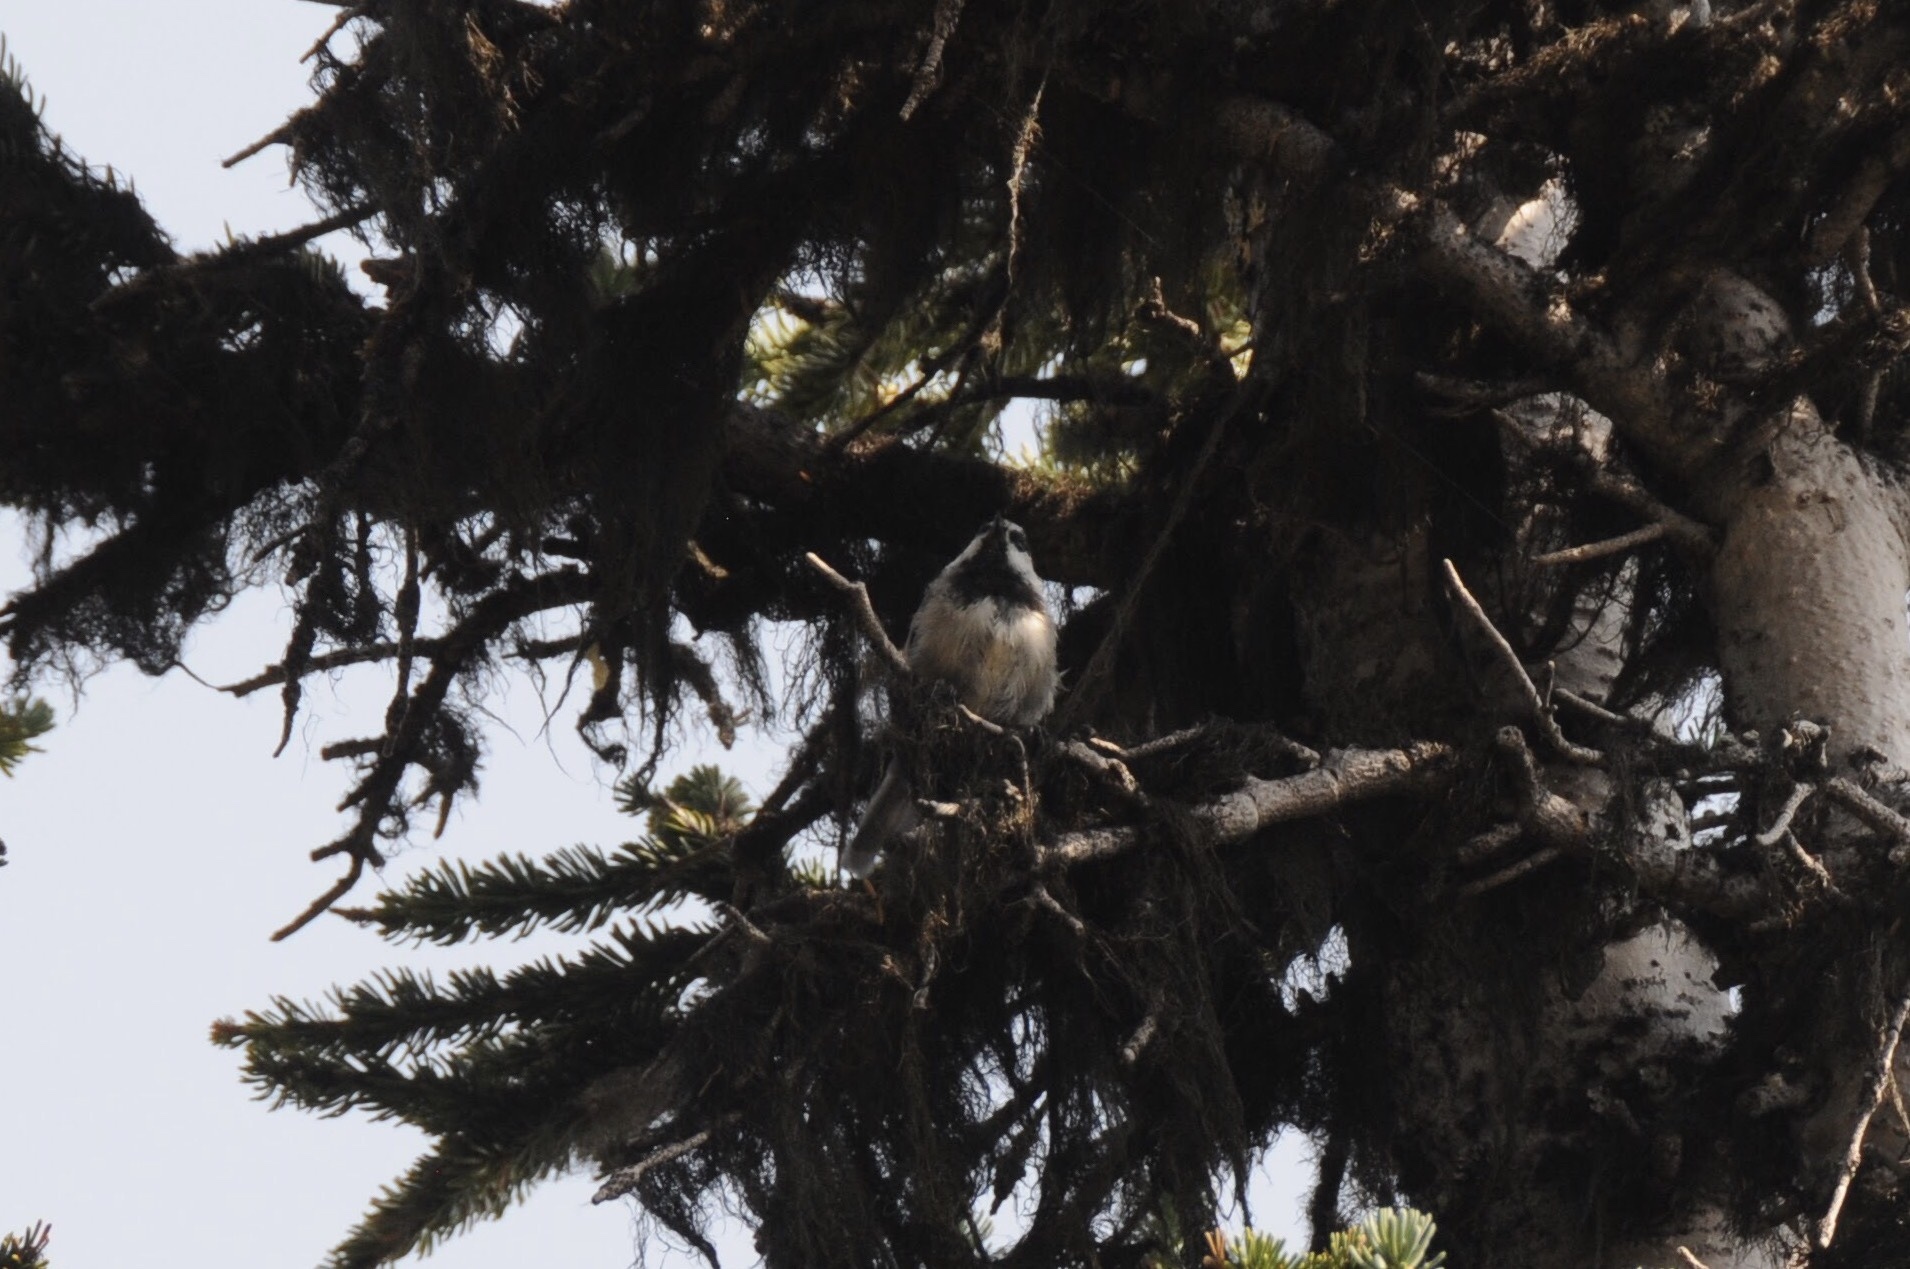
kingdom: Animalia
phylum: Chordata
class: Aves
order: Passeriformes
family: Paridae
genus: Poecile
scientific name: Poecile gambeli
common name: Mountain chickadee
